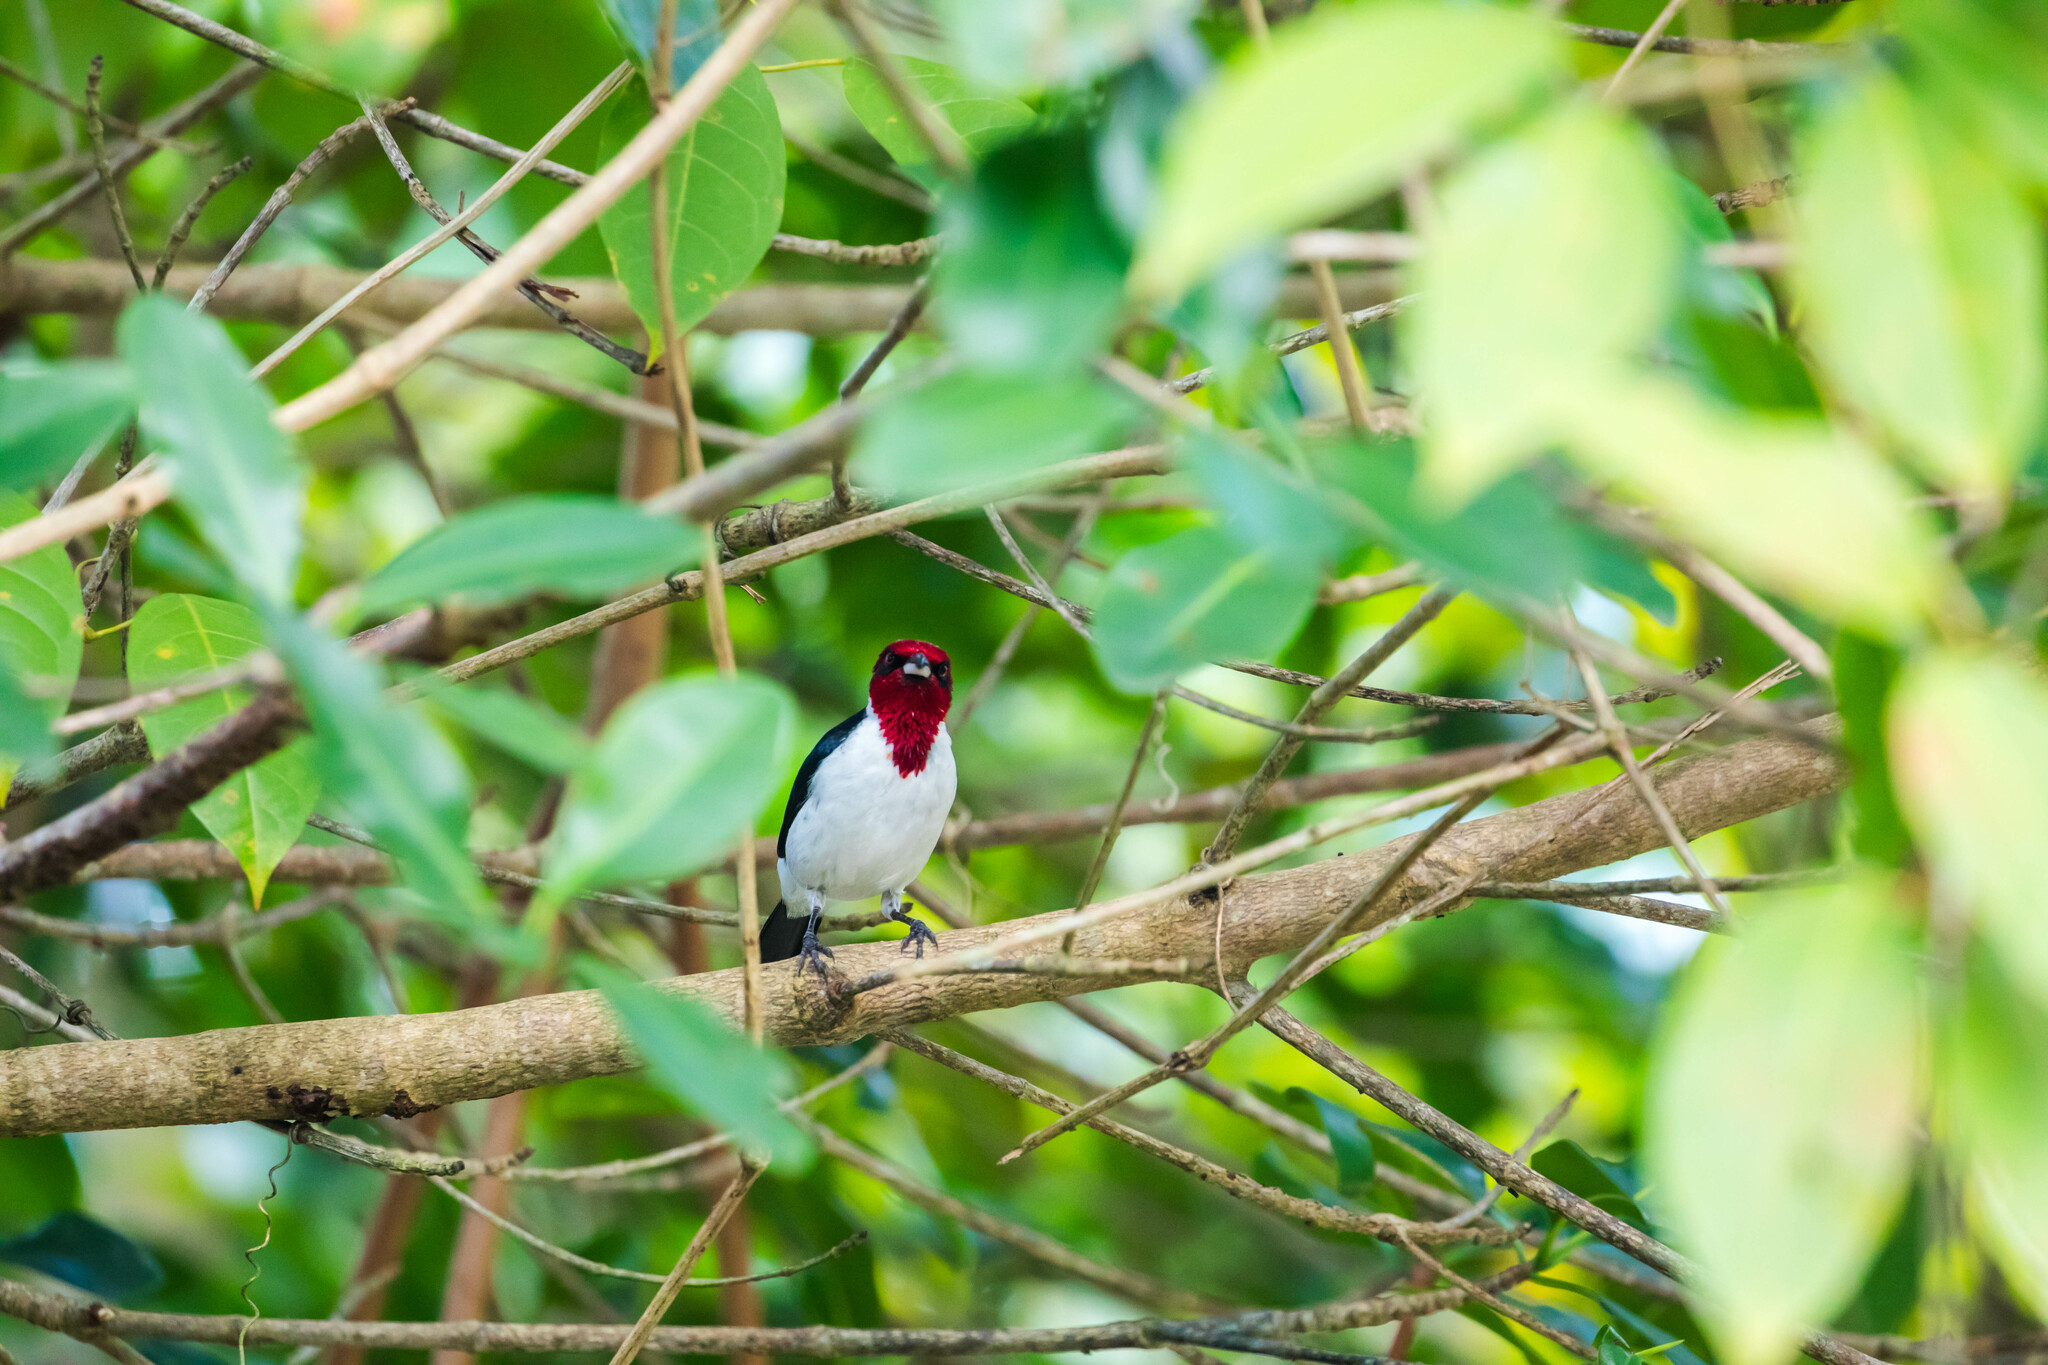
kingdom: Animalia
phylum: Chordata
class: Aves
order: Passeriformes
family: Thraupidae
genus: Paroaria
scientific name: Paroaria nigrogenis
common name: Masked cardinal
